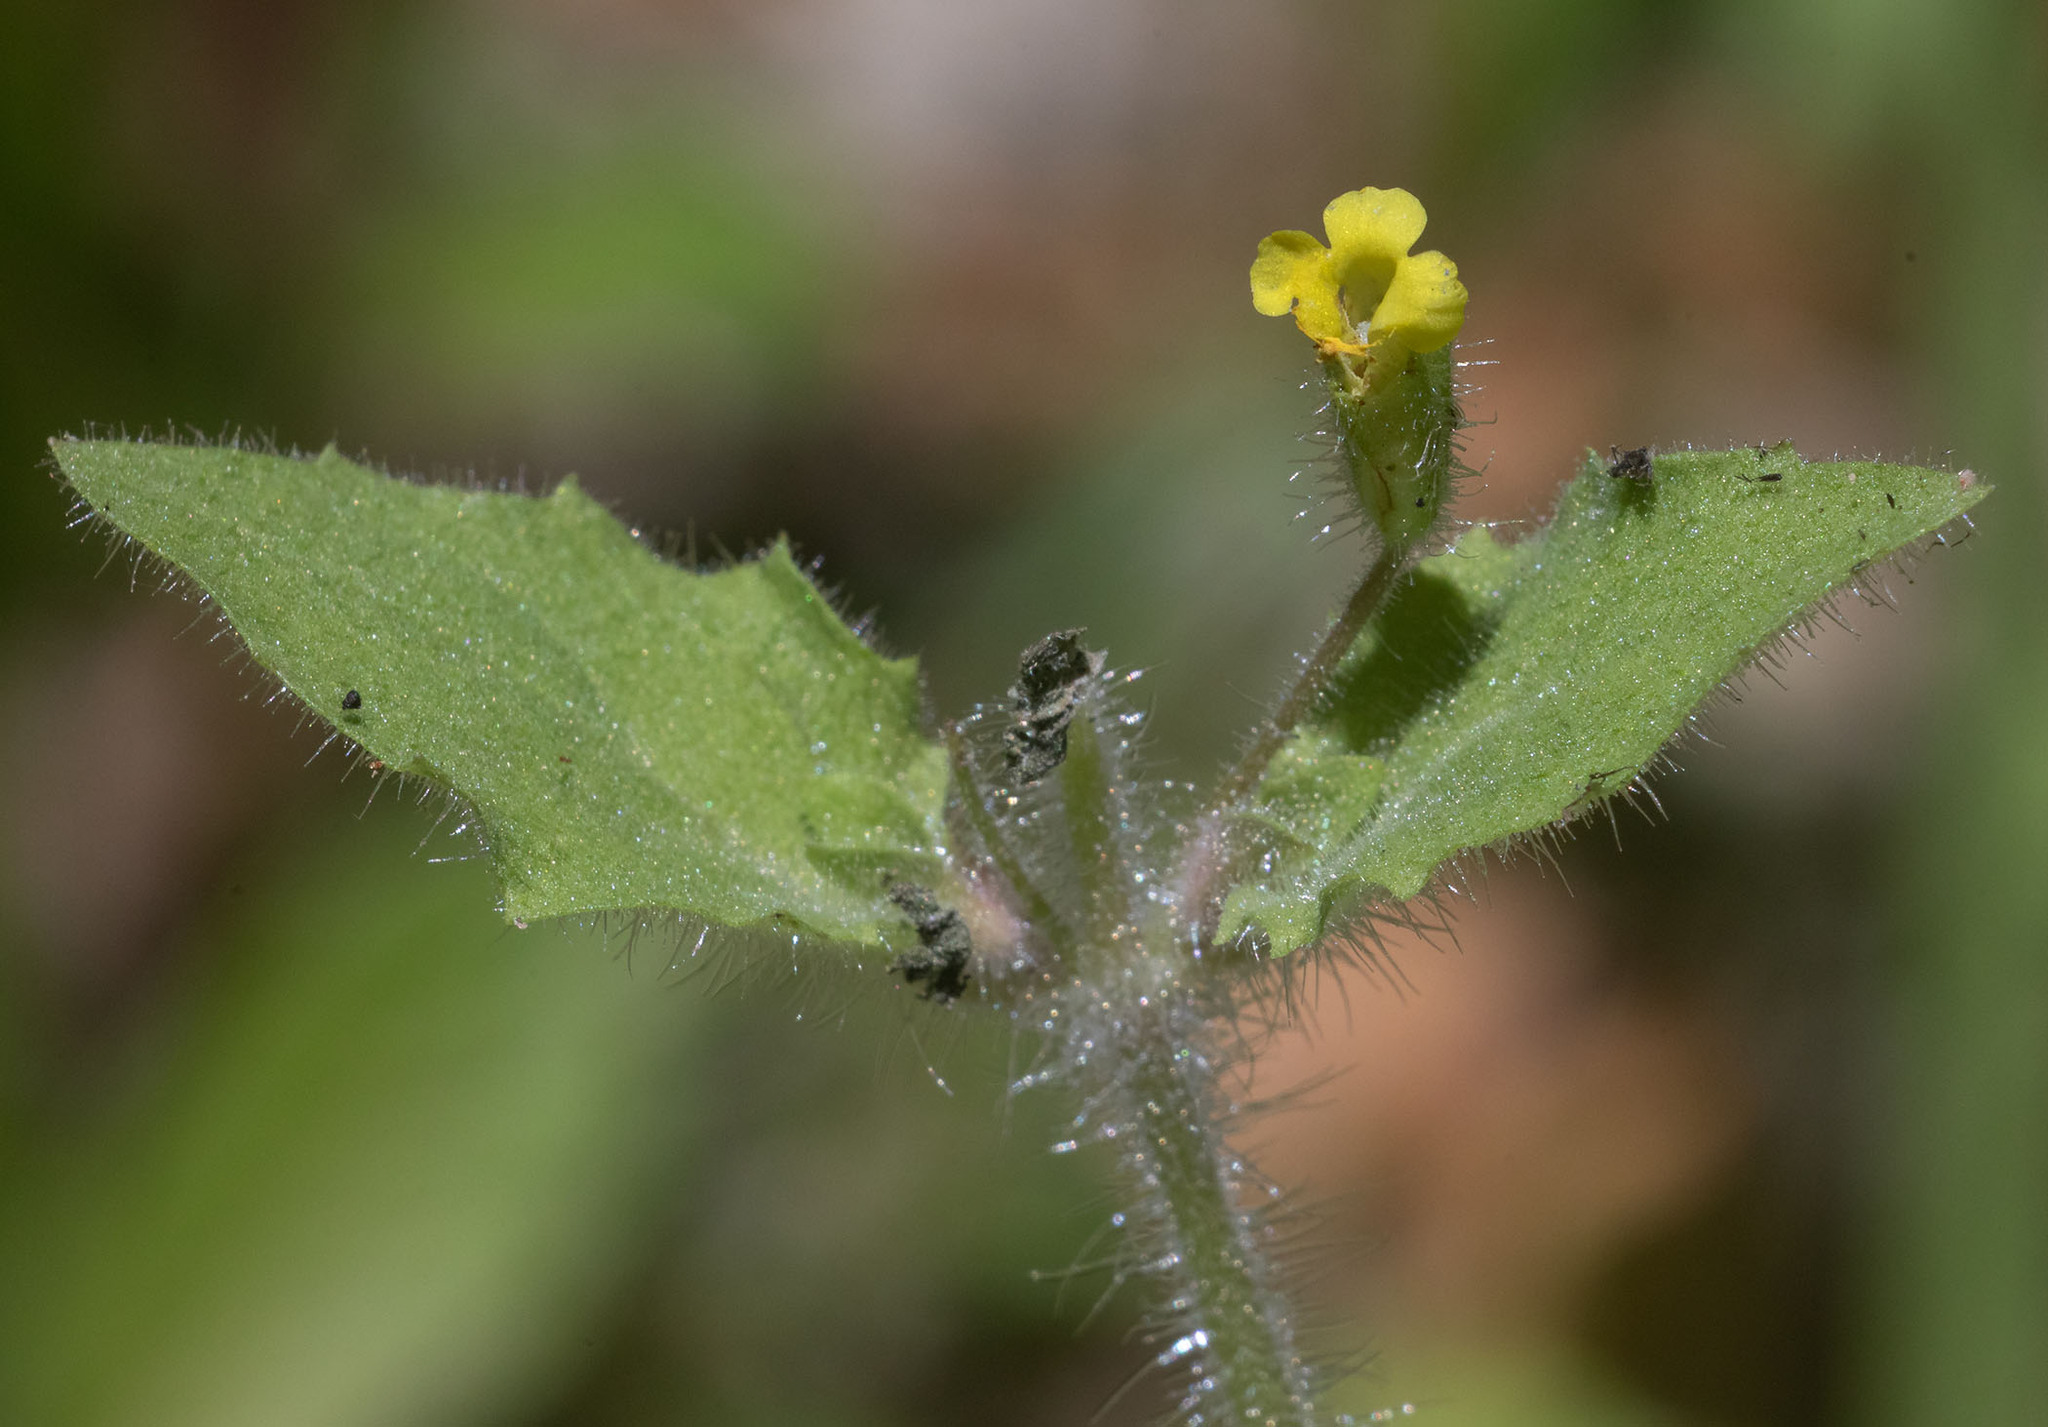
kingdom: Plantae
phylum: Tracheophyta
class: Magnoliopsida
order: Lamiales
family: Phrymaceae
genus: Erythranthe
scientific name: Erythranthe floribunda
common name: Floriferous monkeyflower
